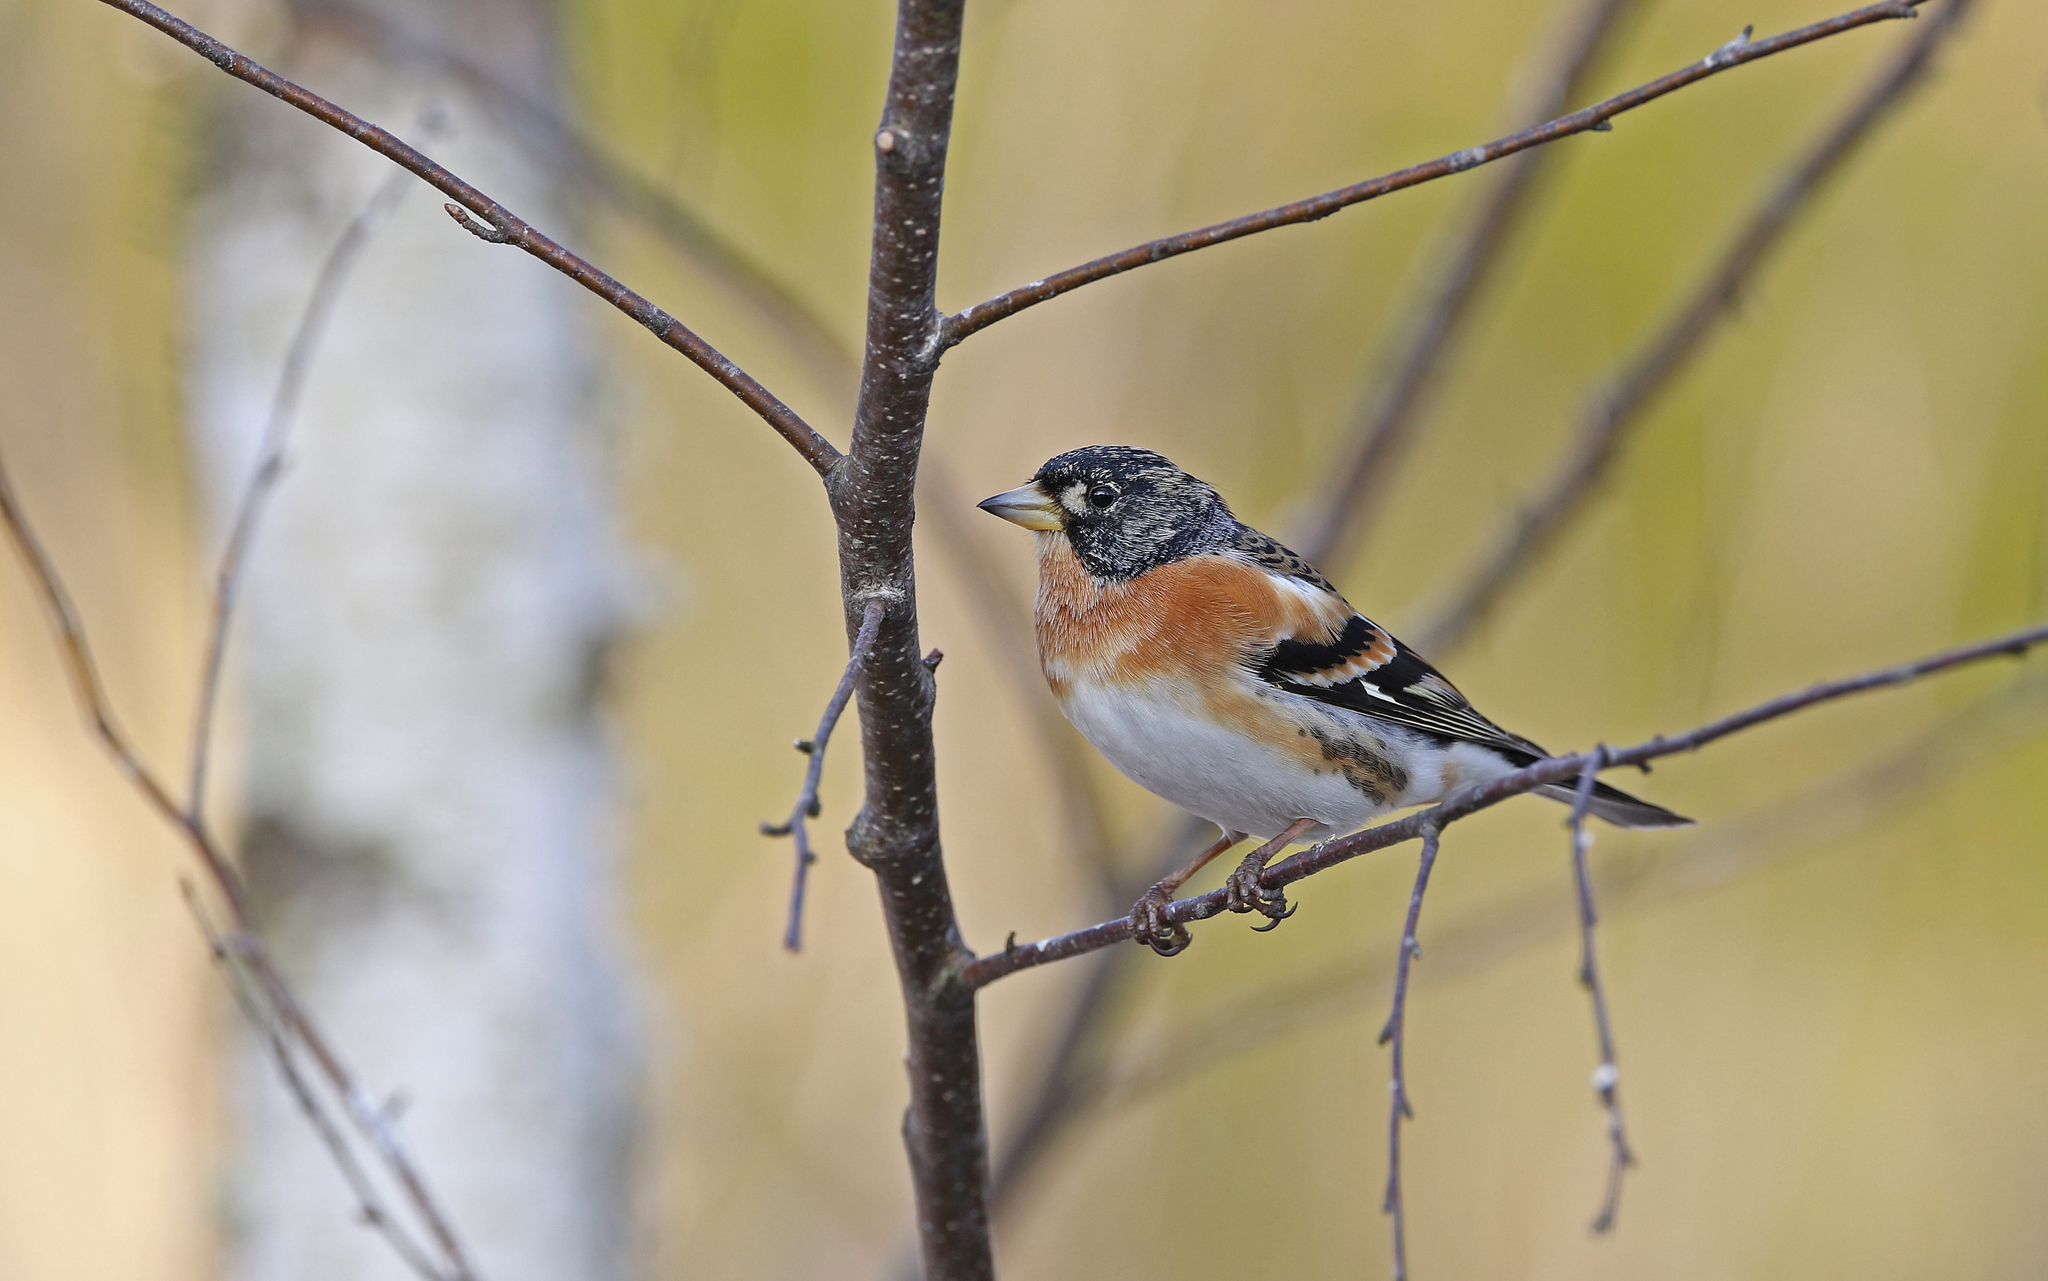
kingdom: Animalia
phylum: Chordata
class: Aves
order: Passeriformes
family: Fringillidae
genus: Fringilla
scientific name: Fringilla montifringilla
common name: Brambling
